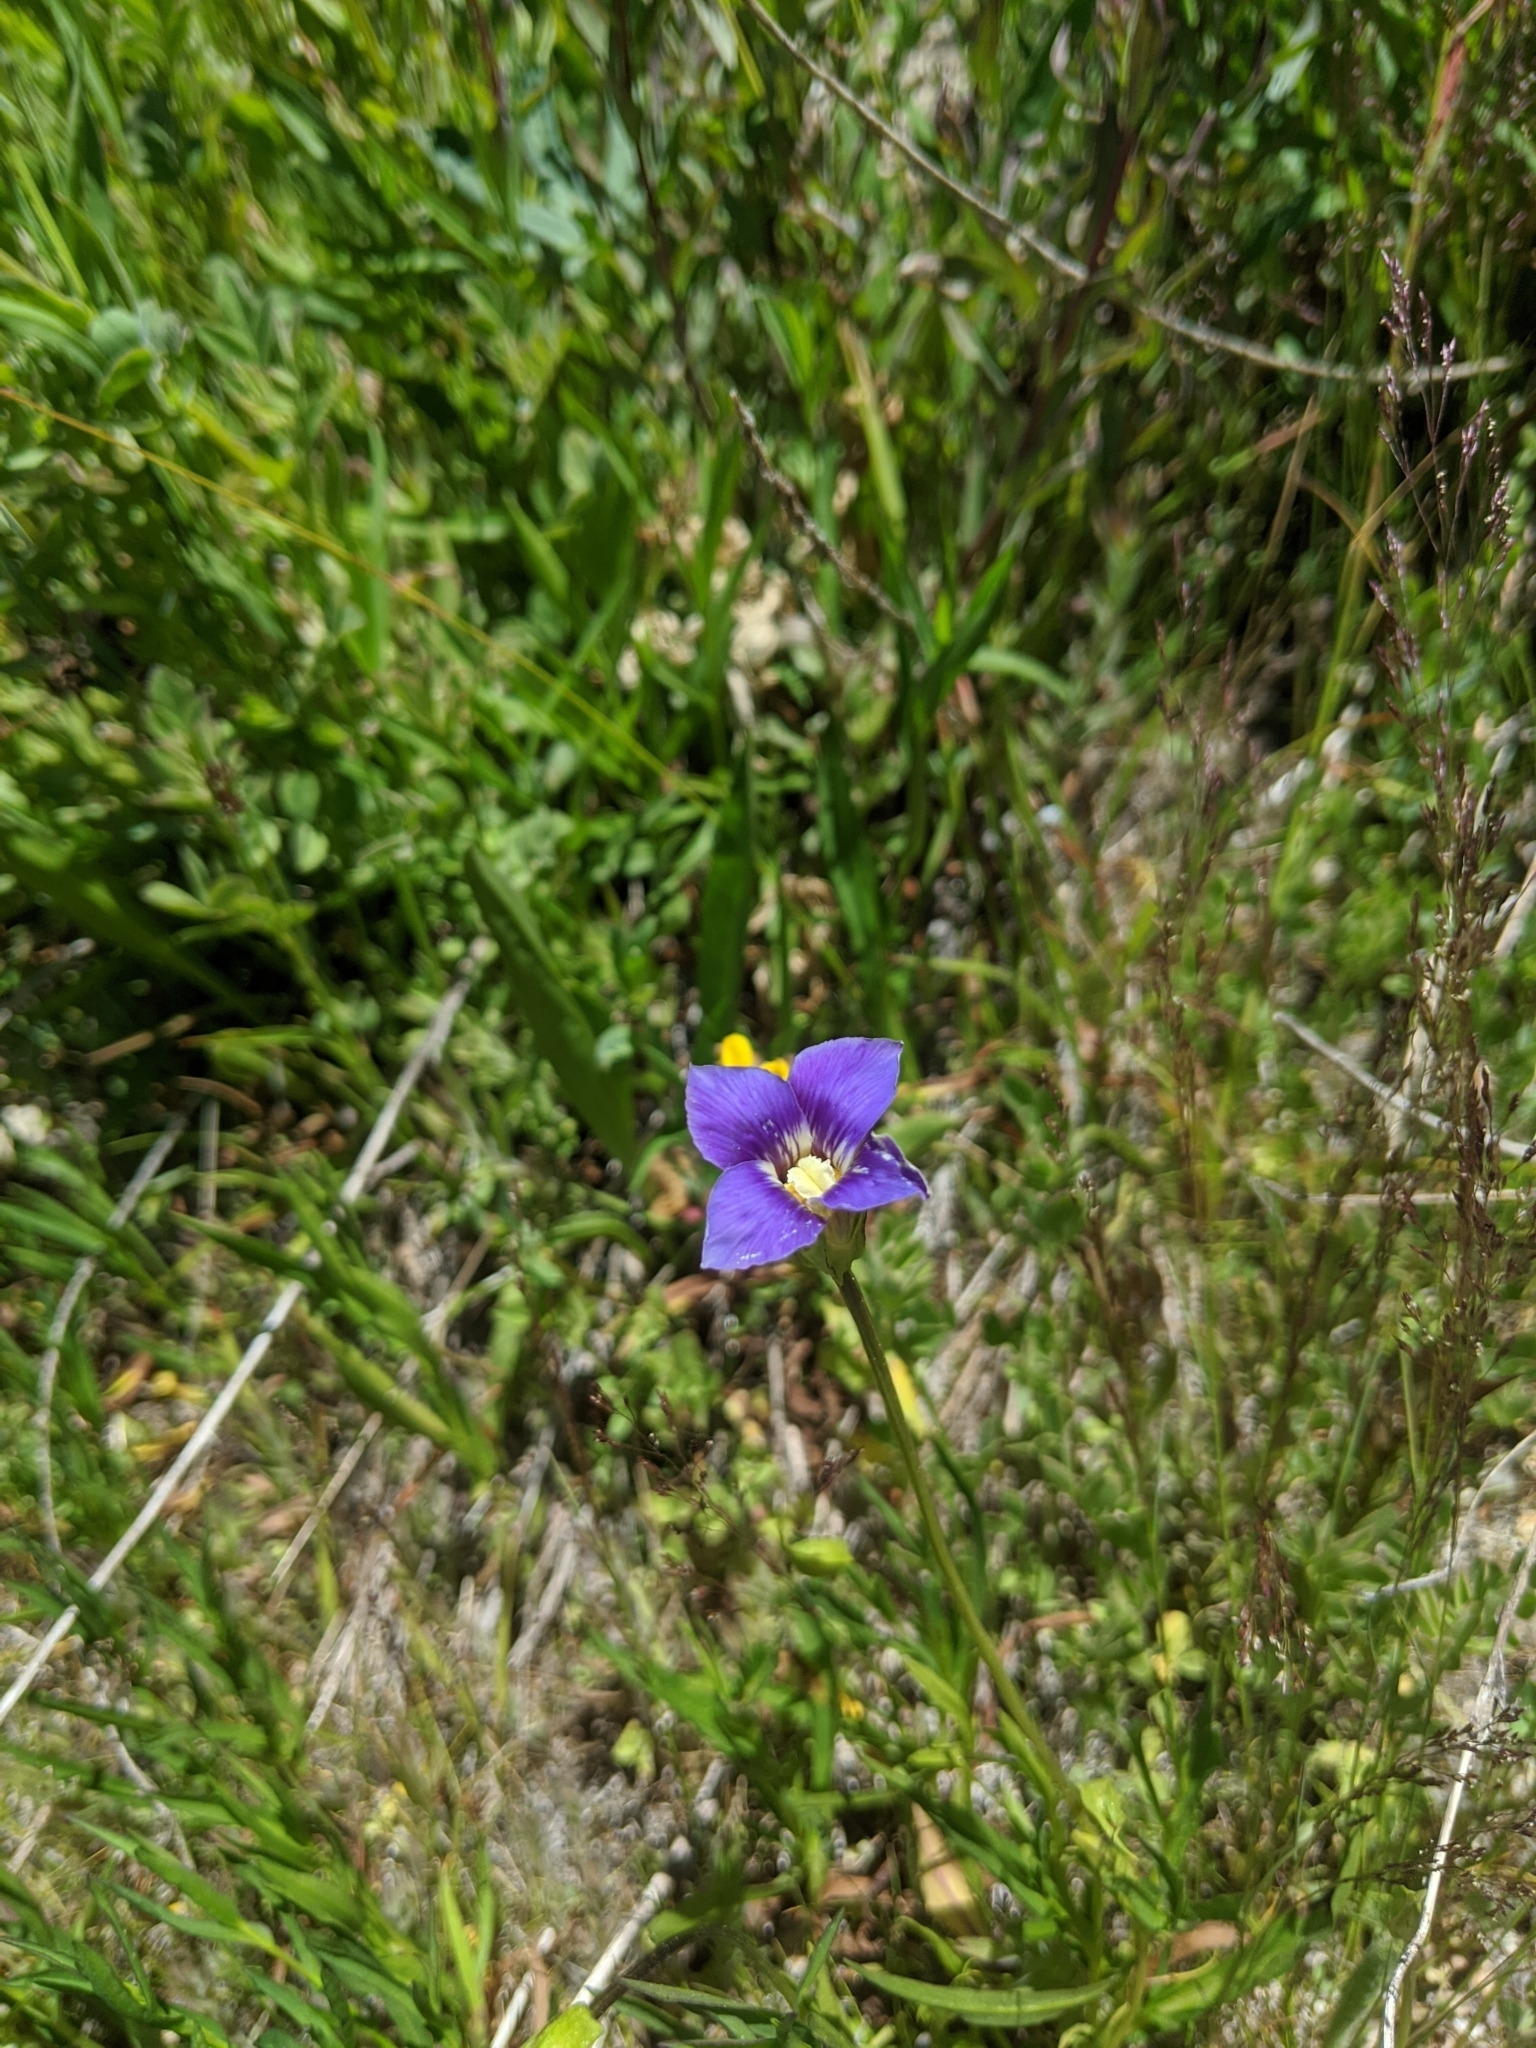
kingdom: Plantae
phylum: Tracheophyta
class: Magnoliopsida
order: Gentianales
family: Gentianaceae
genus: Gentianopsis
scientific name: Gentianopsis holopetala
